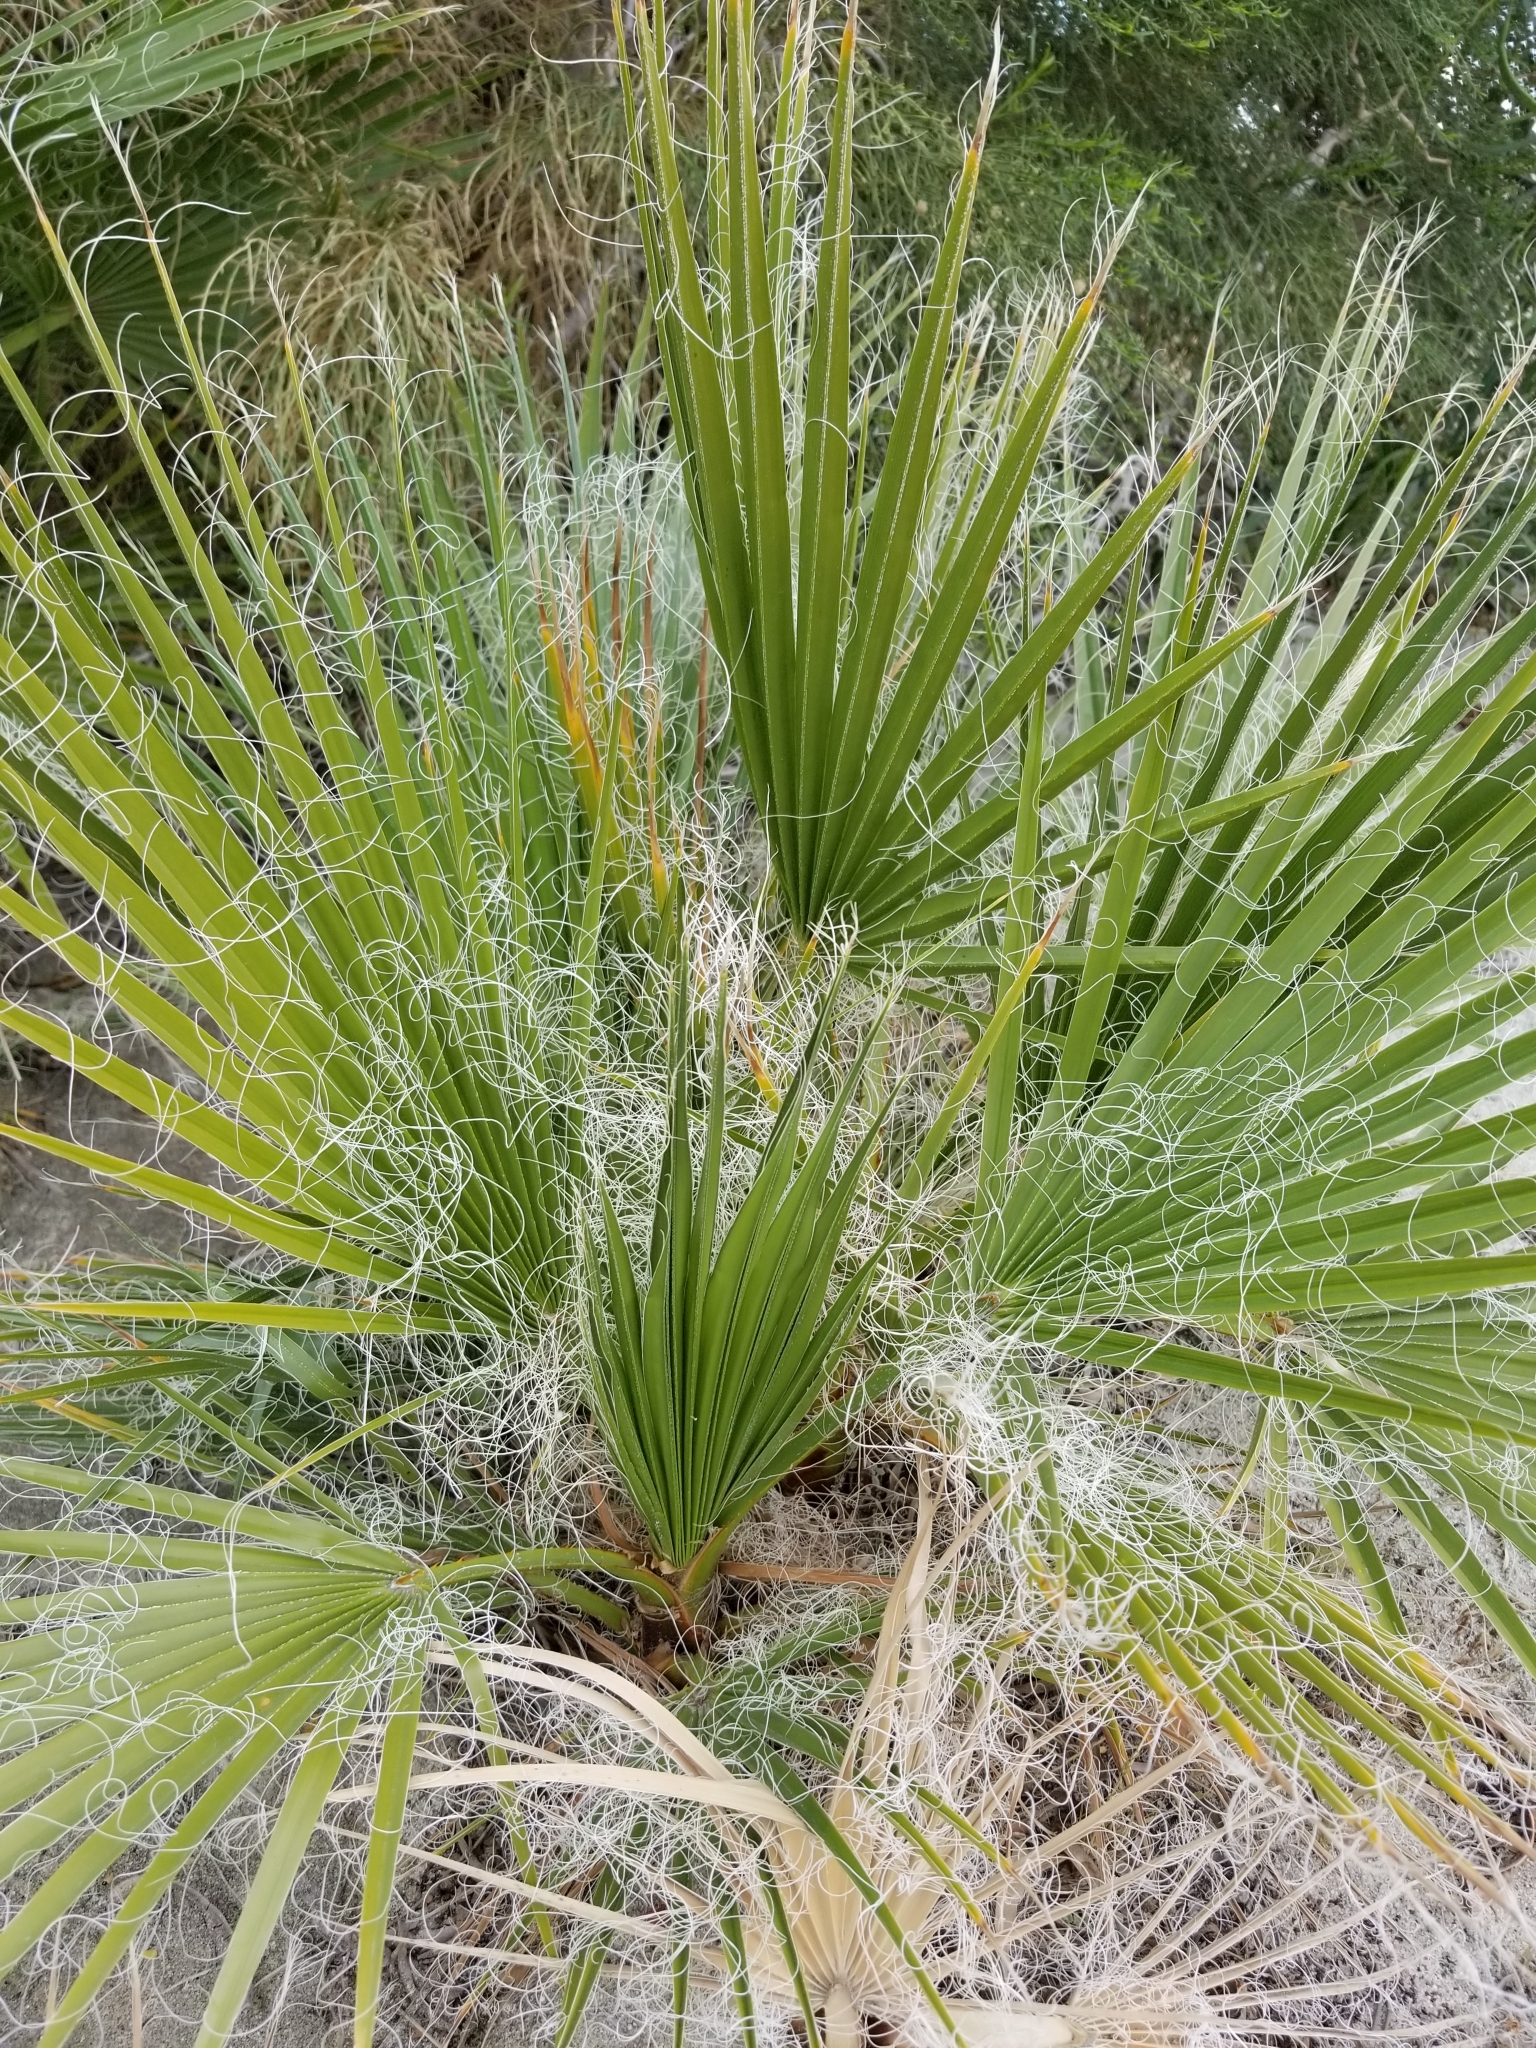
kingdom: Plantae
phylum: Tracheophyta
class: Liliopsida
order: Arecales
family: Arecaceae
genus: Washingtonia
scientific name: Washingtonia filifera
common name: California fan palm
